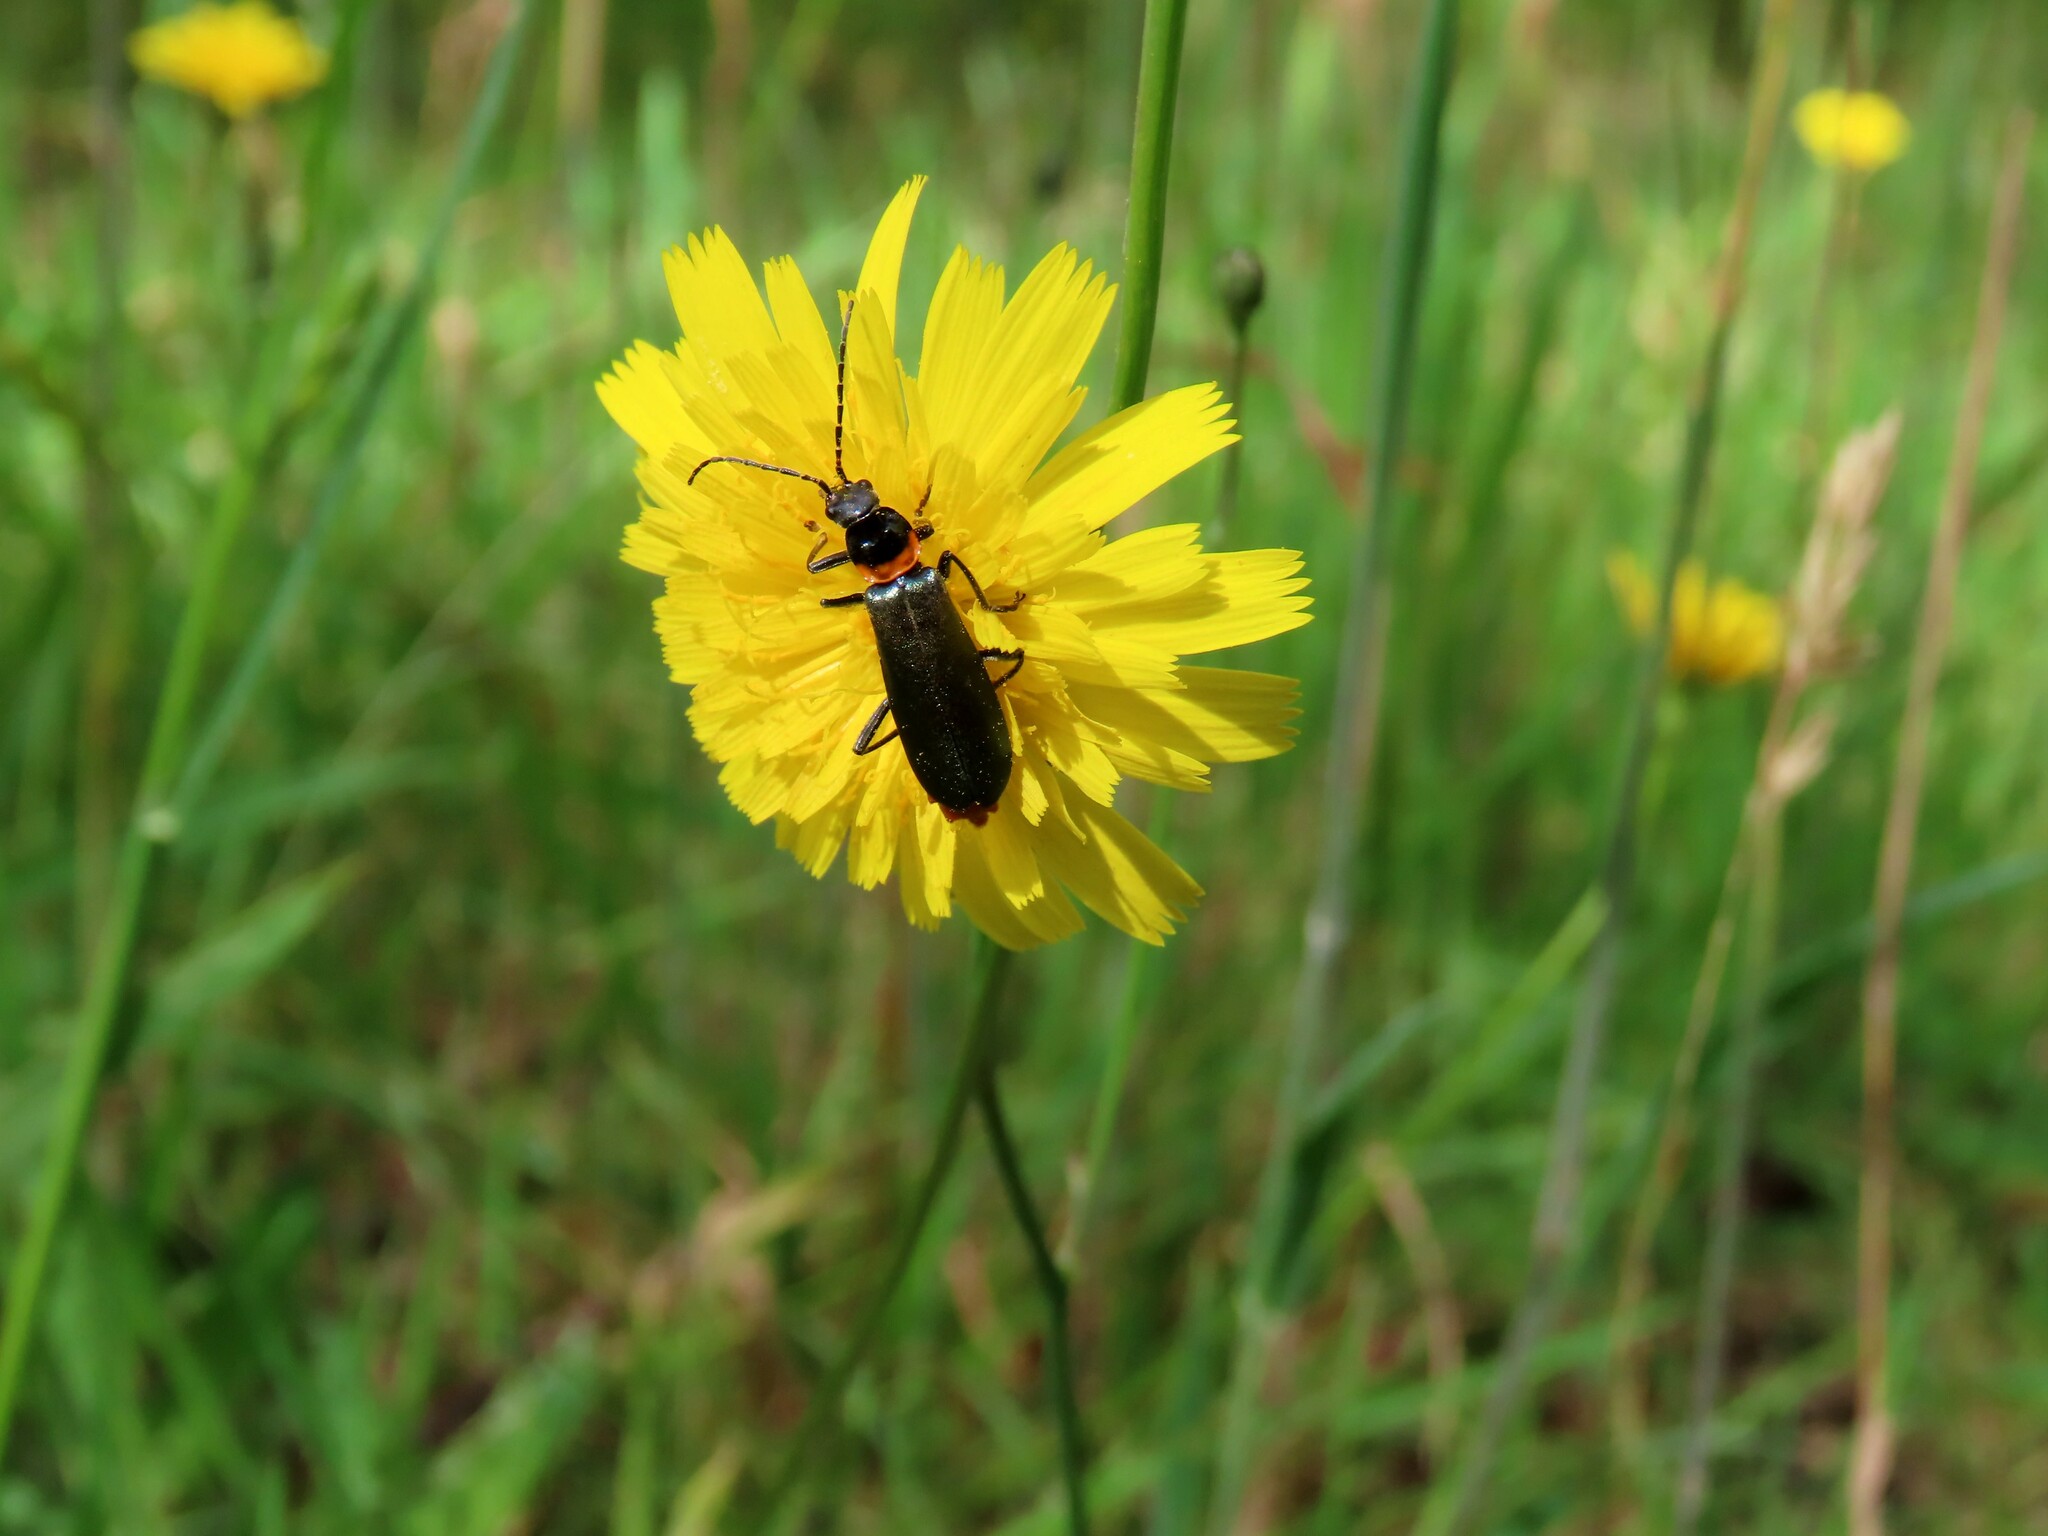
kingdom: Animalia
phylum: Arthropoda
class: Insecta
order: Coleoptera
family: Cantharidae
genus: Chauliognathus
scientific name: Chauliognathus
